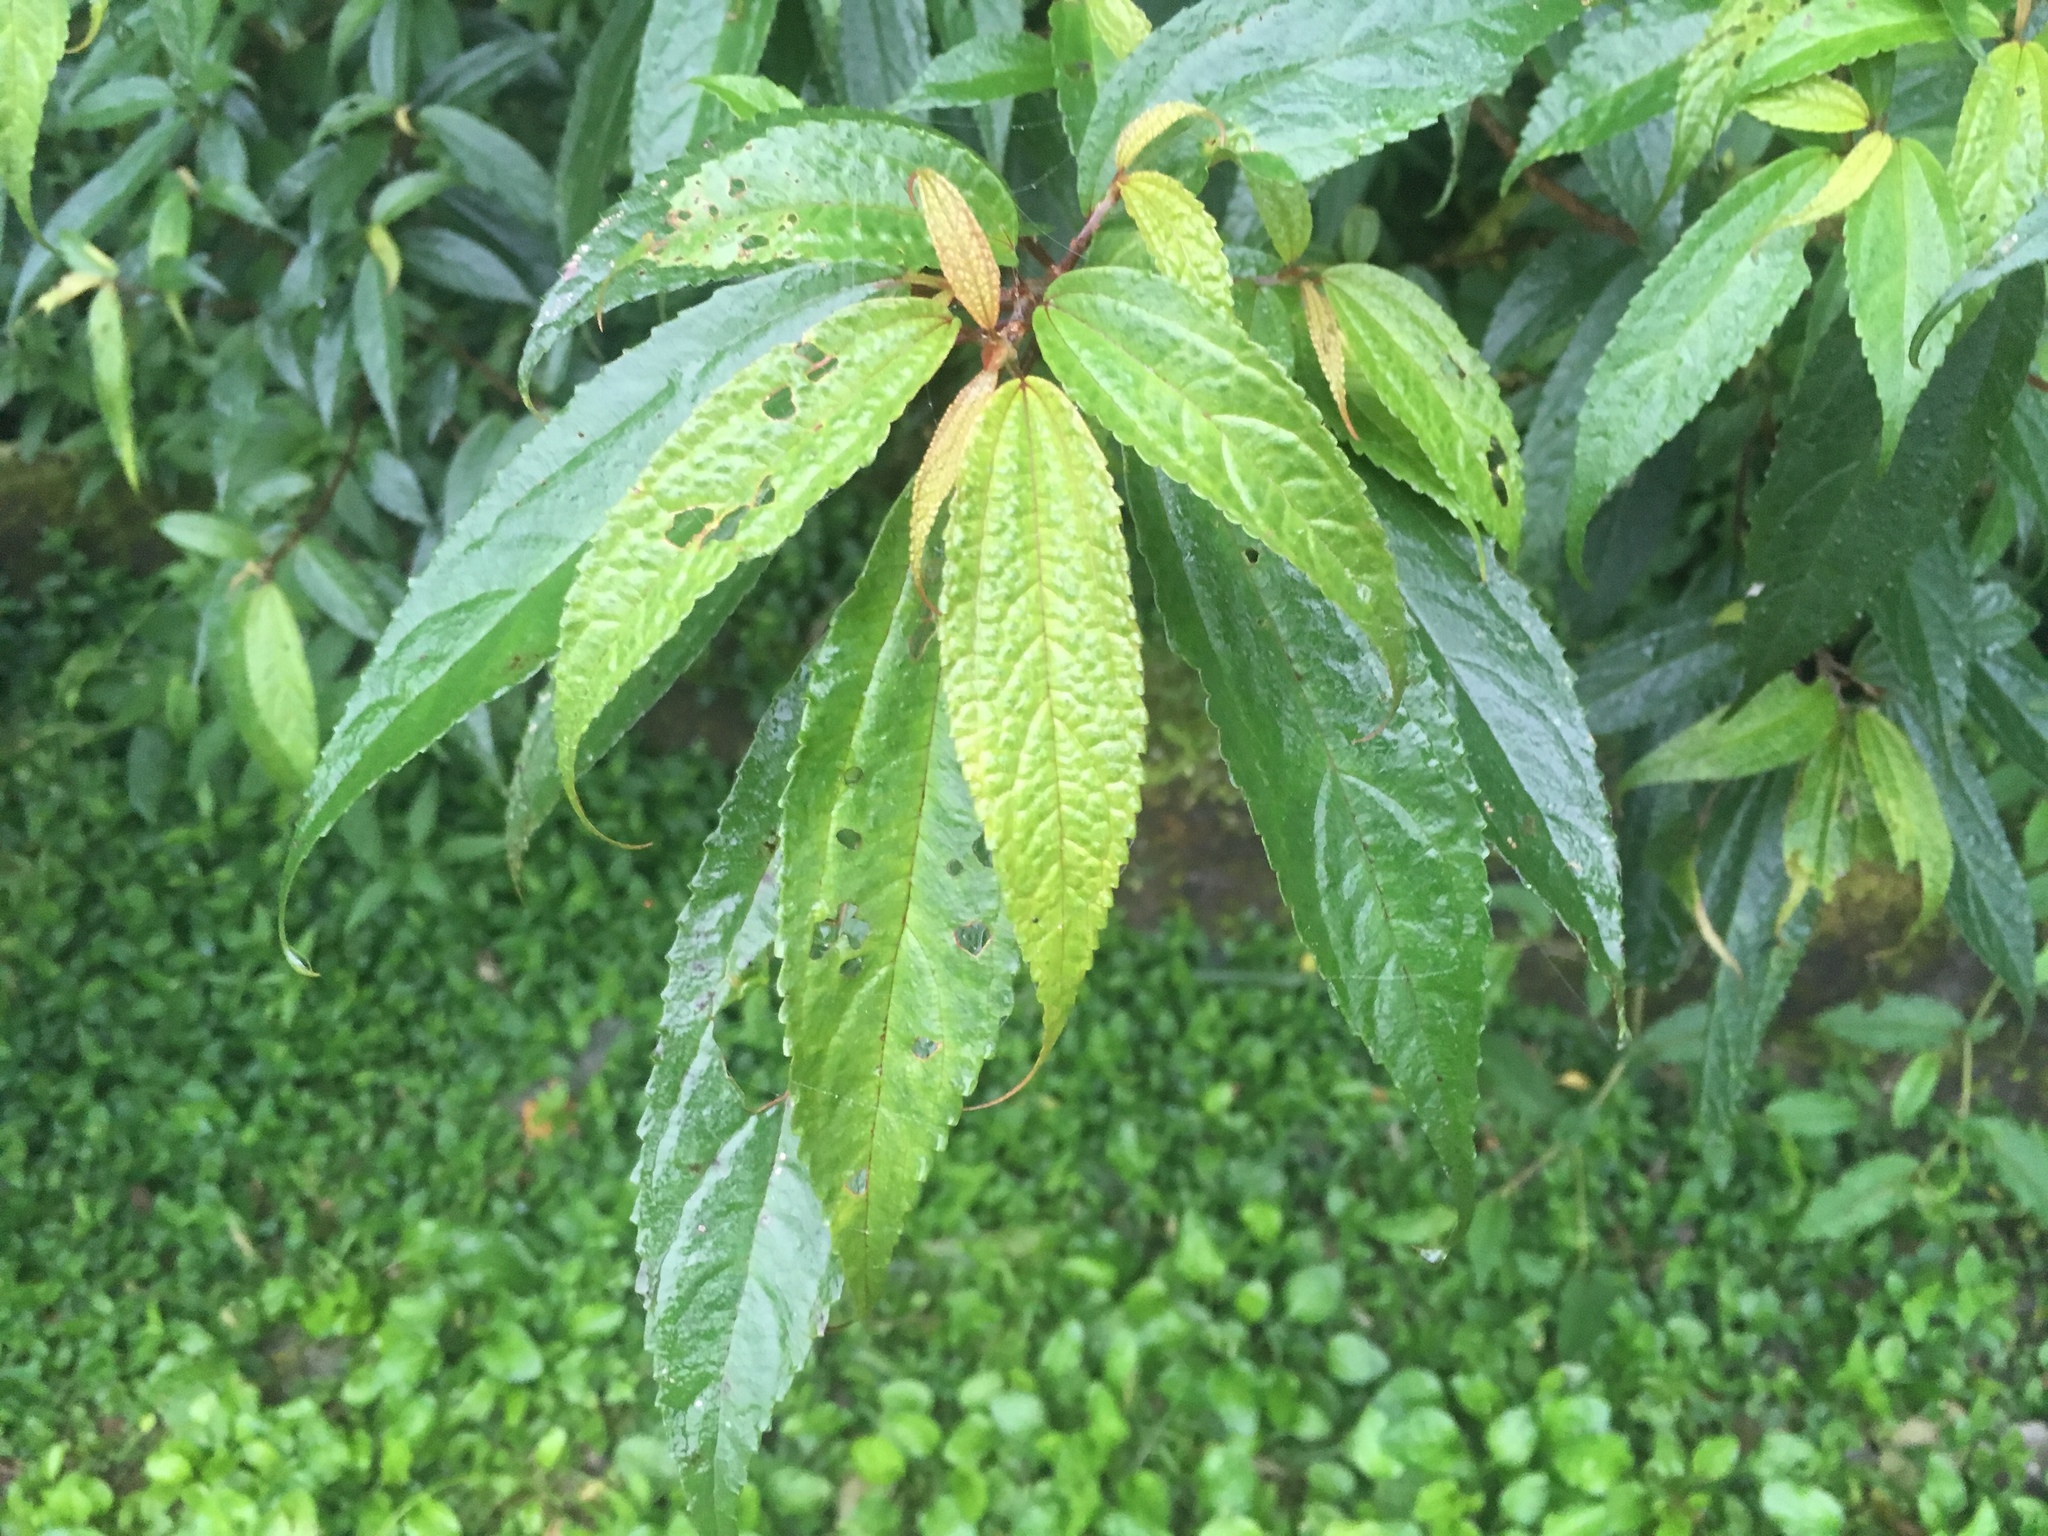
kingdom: Plantae
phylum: Tracheophyta
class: Magnoliopsida
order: Rosales
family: Urticaceae
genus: Oreocnide
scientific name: Oreocnide pedunculata
